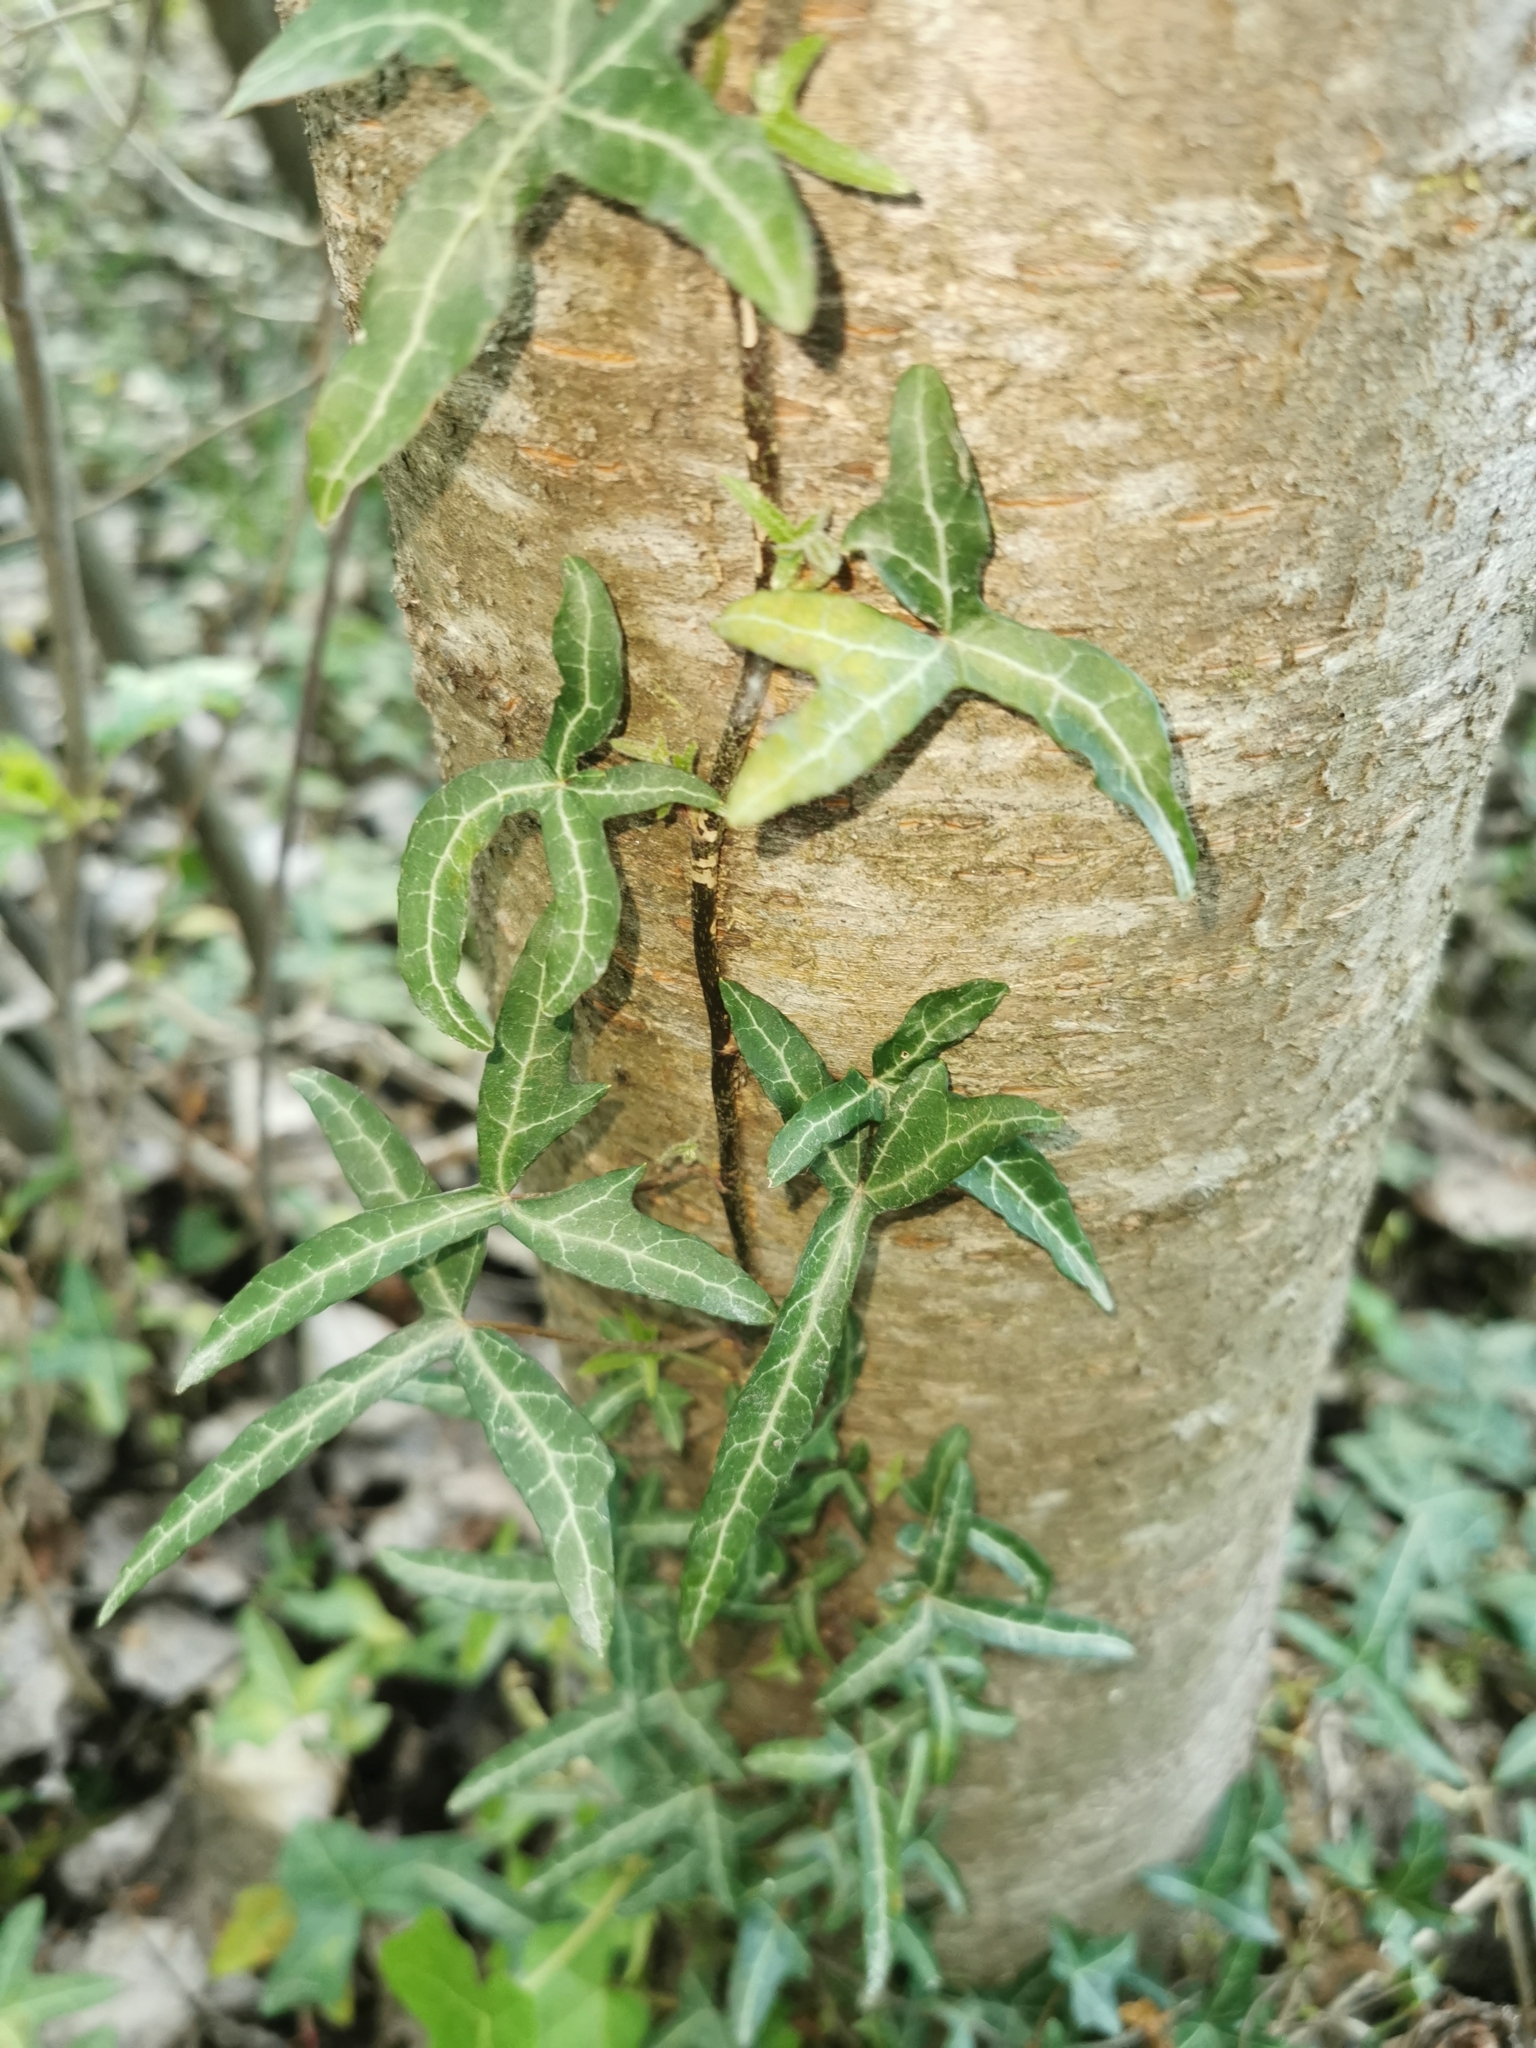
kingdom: Plantae
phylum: Tracheophyta
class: Magnoliopsida
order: Apiales
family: Araliaceae
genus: Hedera
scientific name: Hedera helix
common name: Ivy
